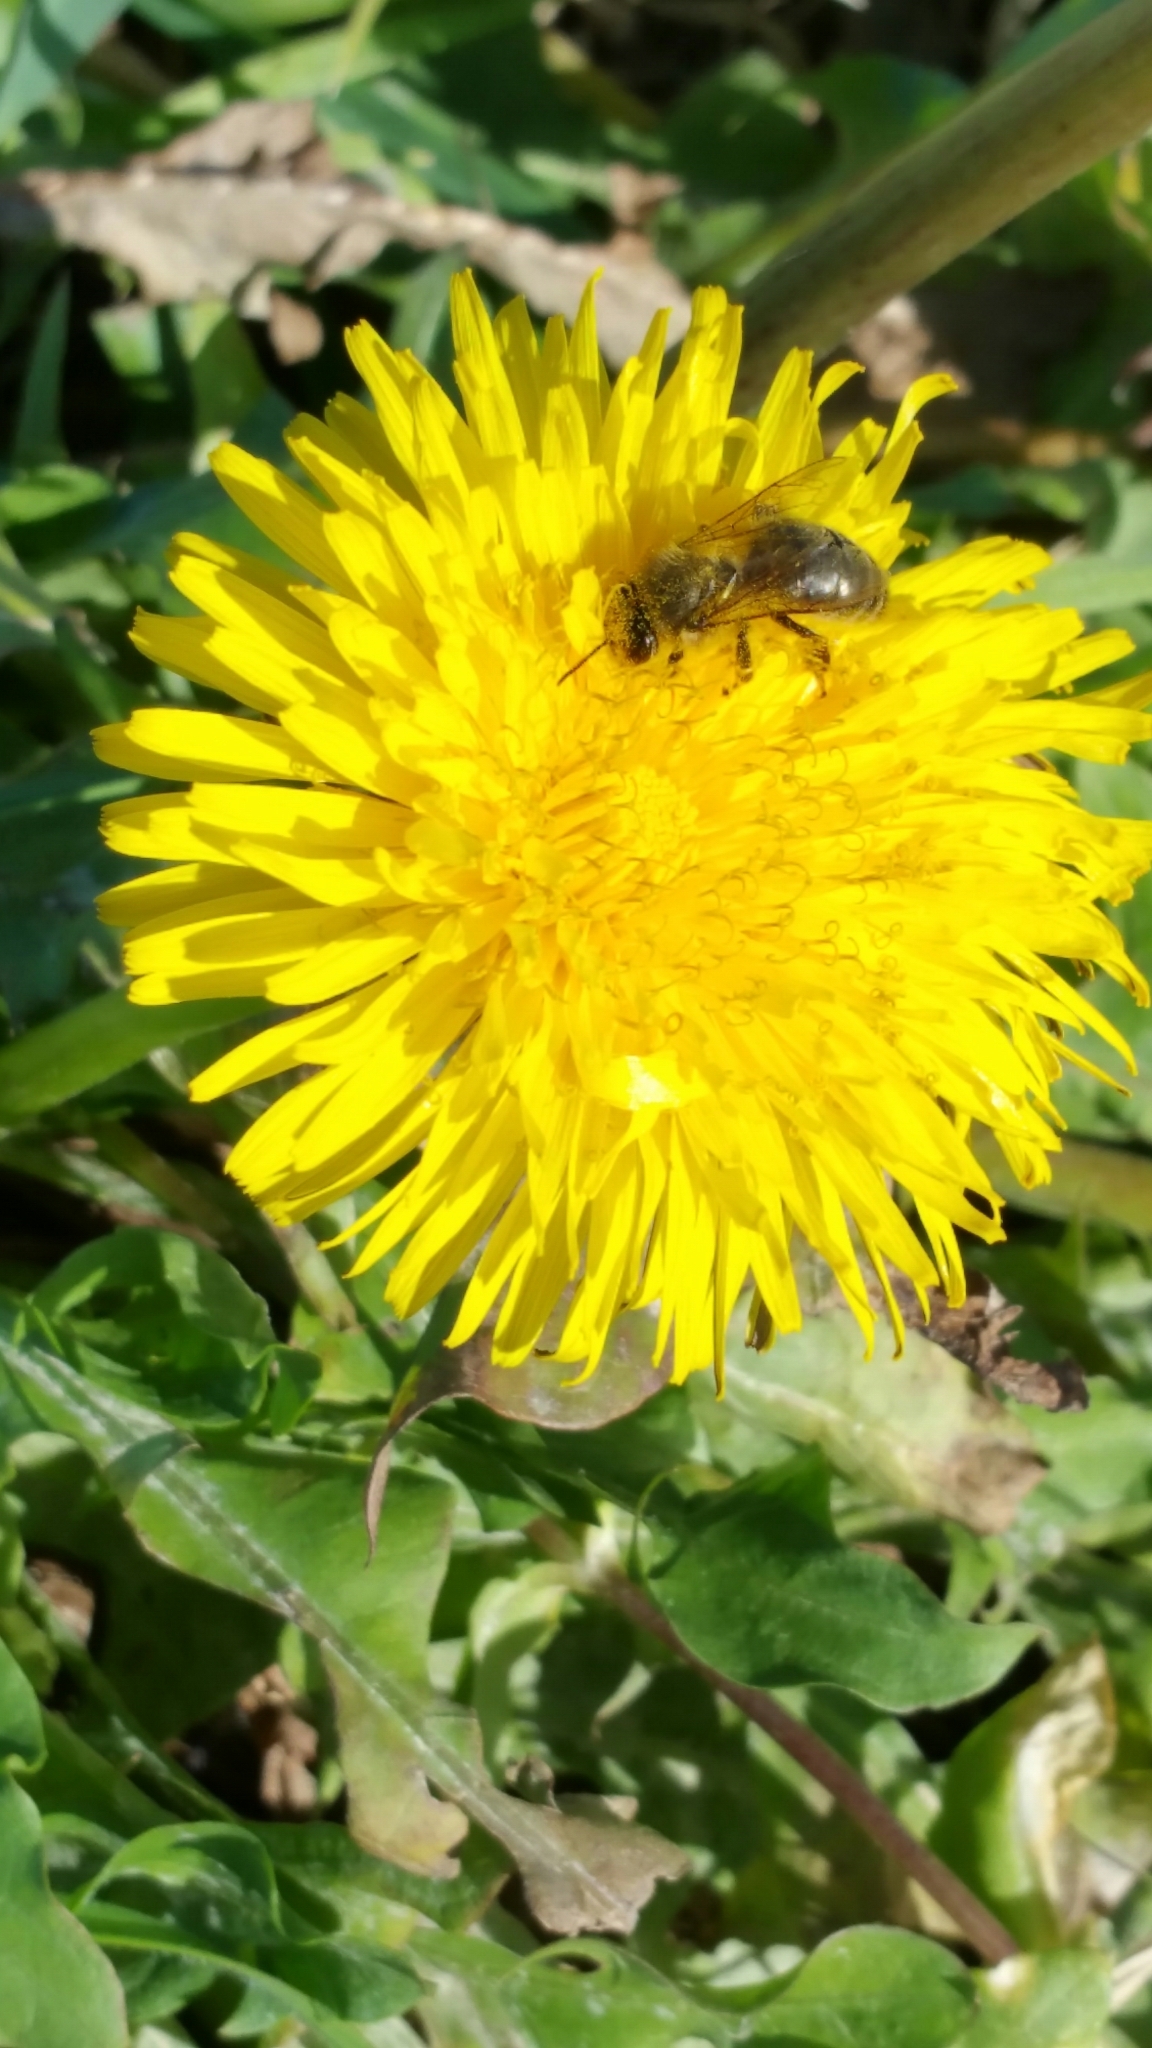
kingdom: Animalia
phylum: Arthropoda
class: Insecta
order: Hymenoptera
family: Apidae
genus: Apis
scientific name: Apis mellifera
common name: Honey bee
